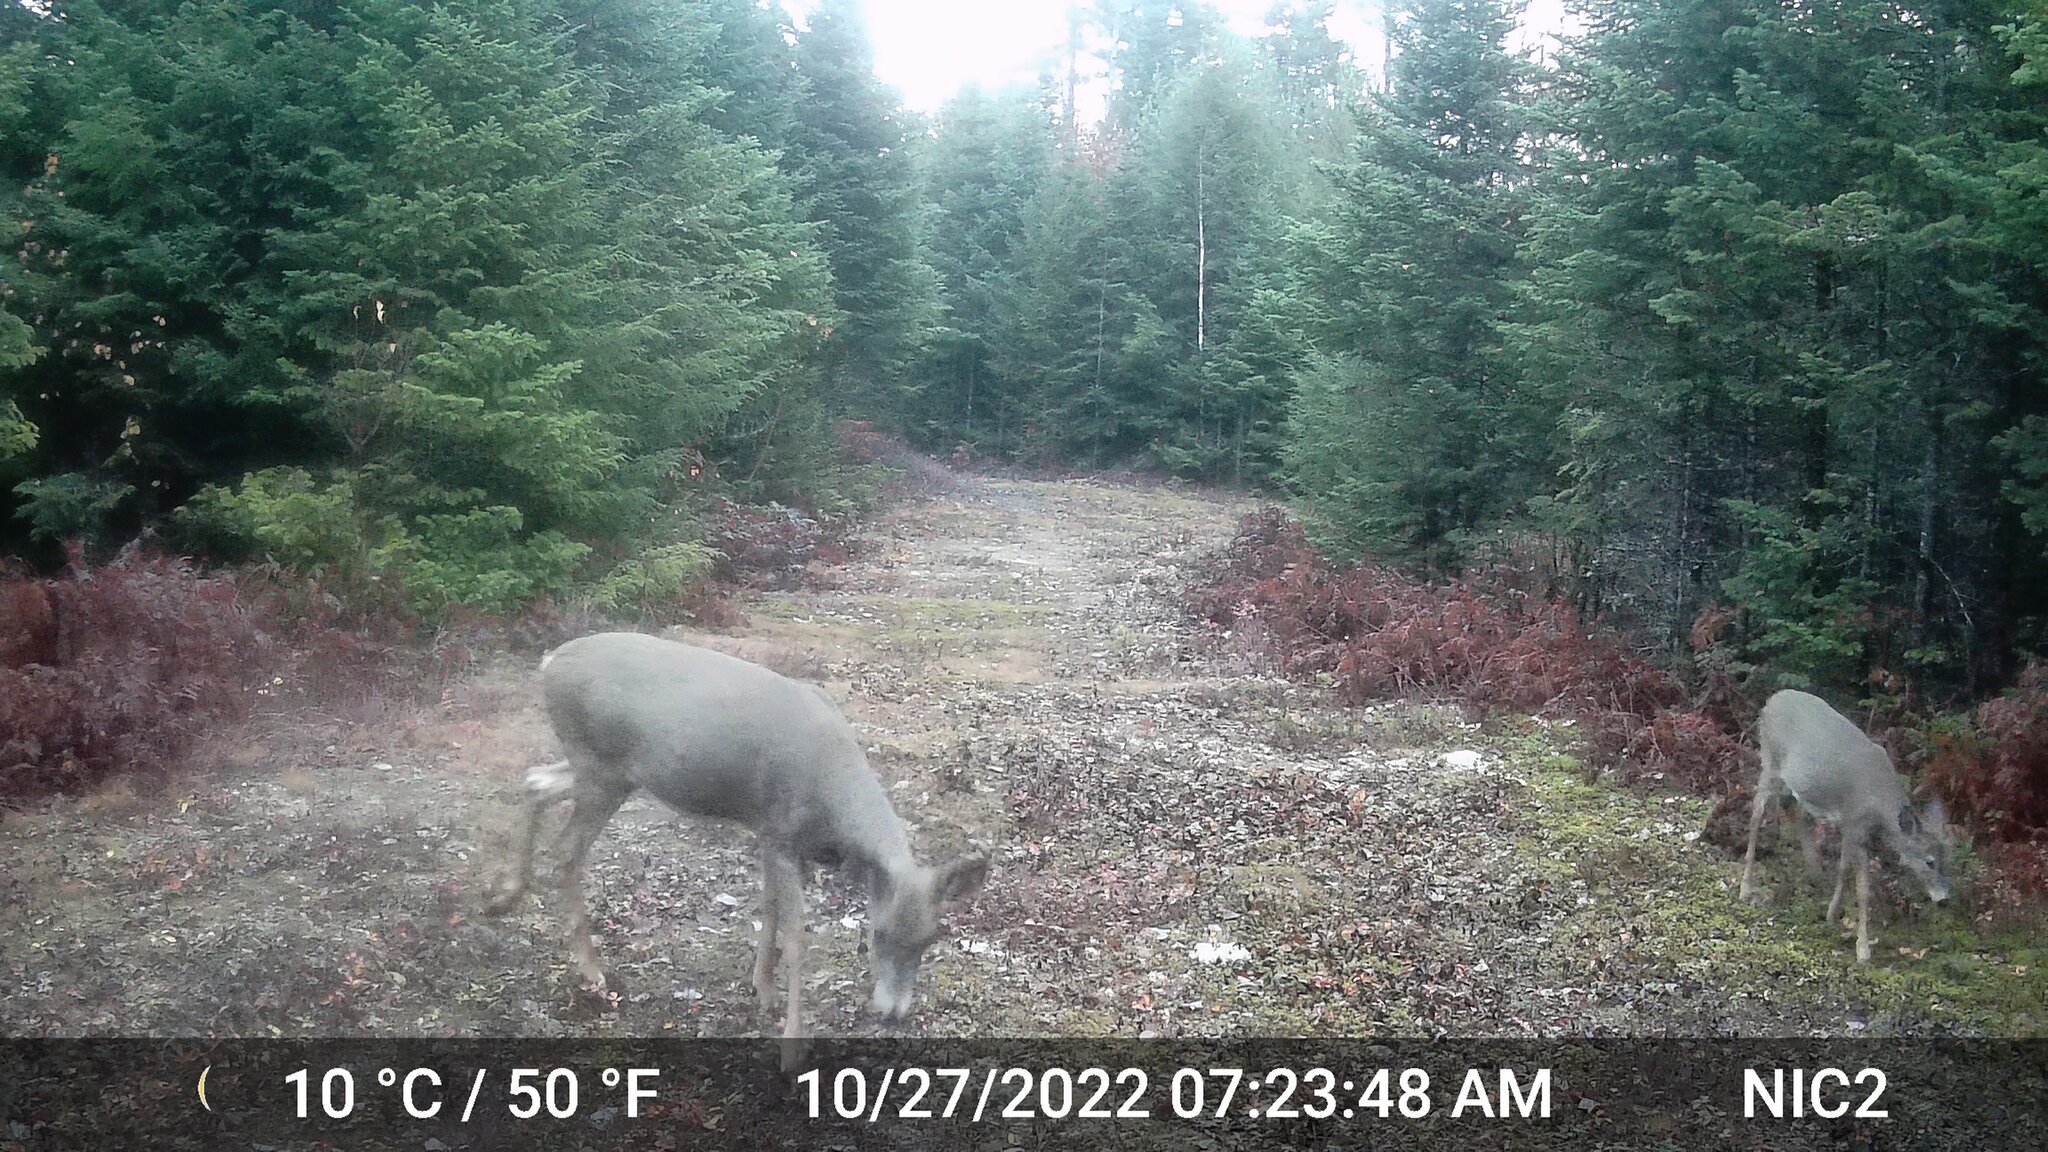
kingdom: Animalia
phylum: Chordata
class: Mammalia
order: Artiodactyla
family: Cervidae
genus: Odocoileus
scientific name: Odocoileus virginianus
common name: White-tailed deer
